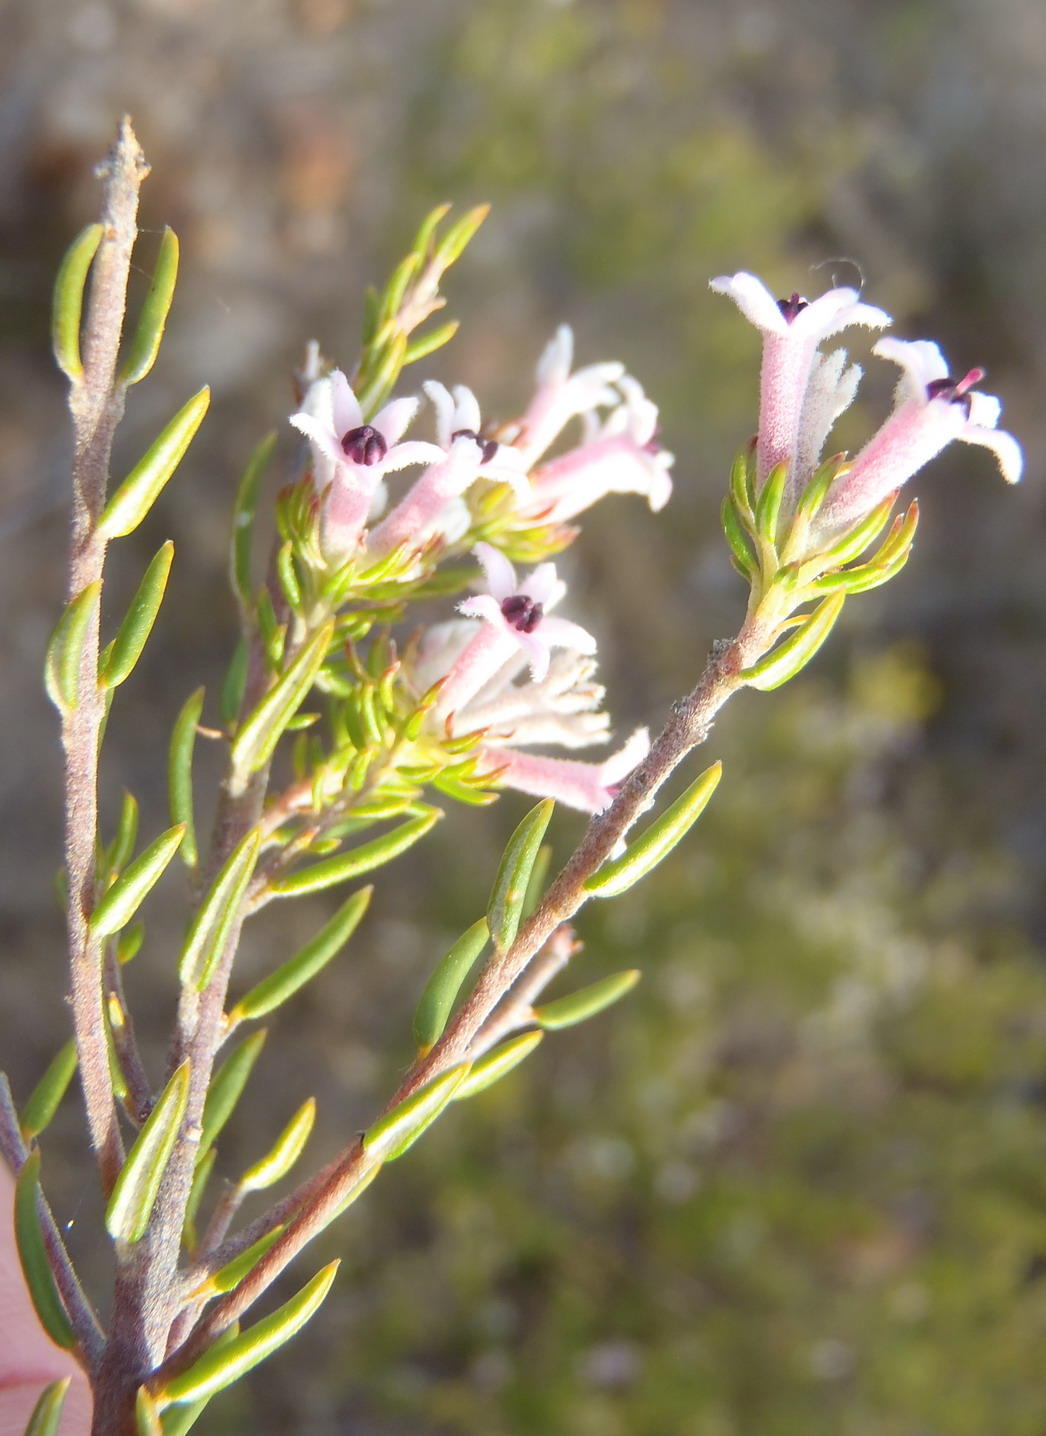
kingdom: Plantae
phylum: Tracheophyta
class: Magnoliopsida
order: Rosales
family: Rhamnaceae
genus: Phylica
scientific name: Phylica lachneaeoides
